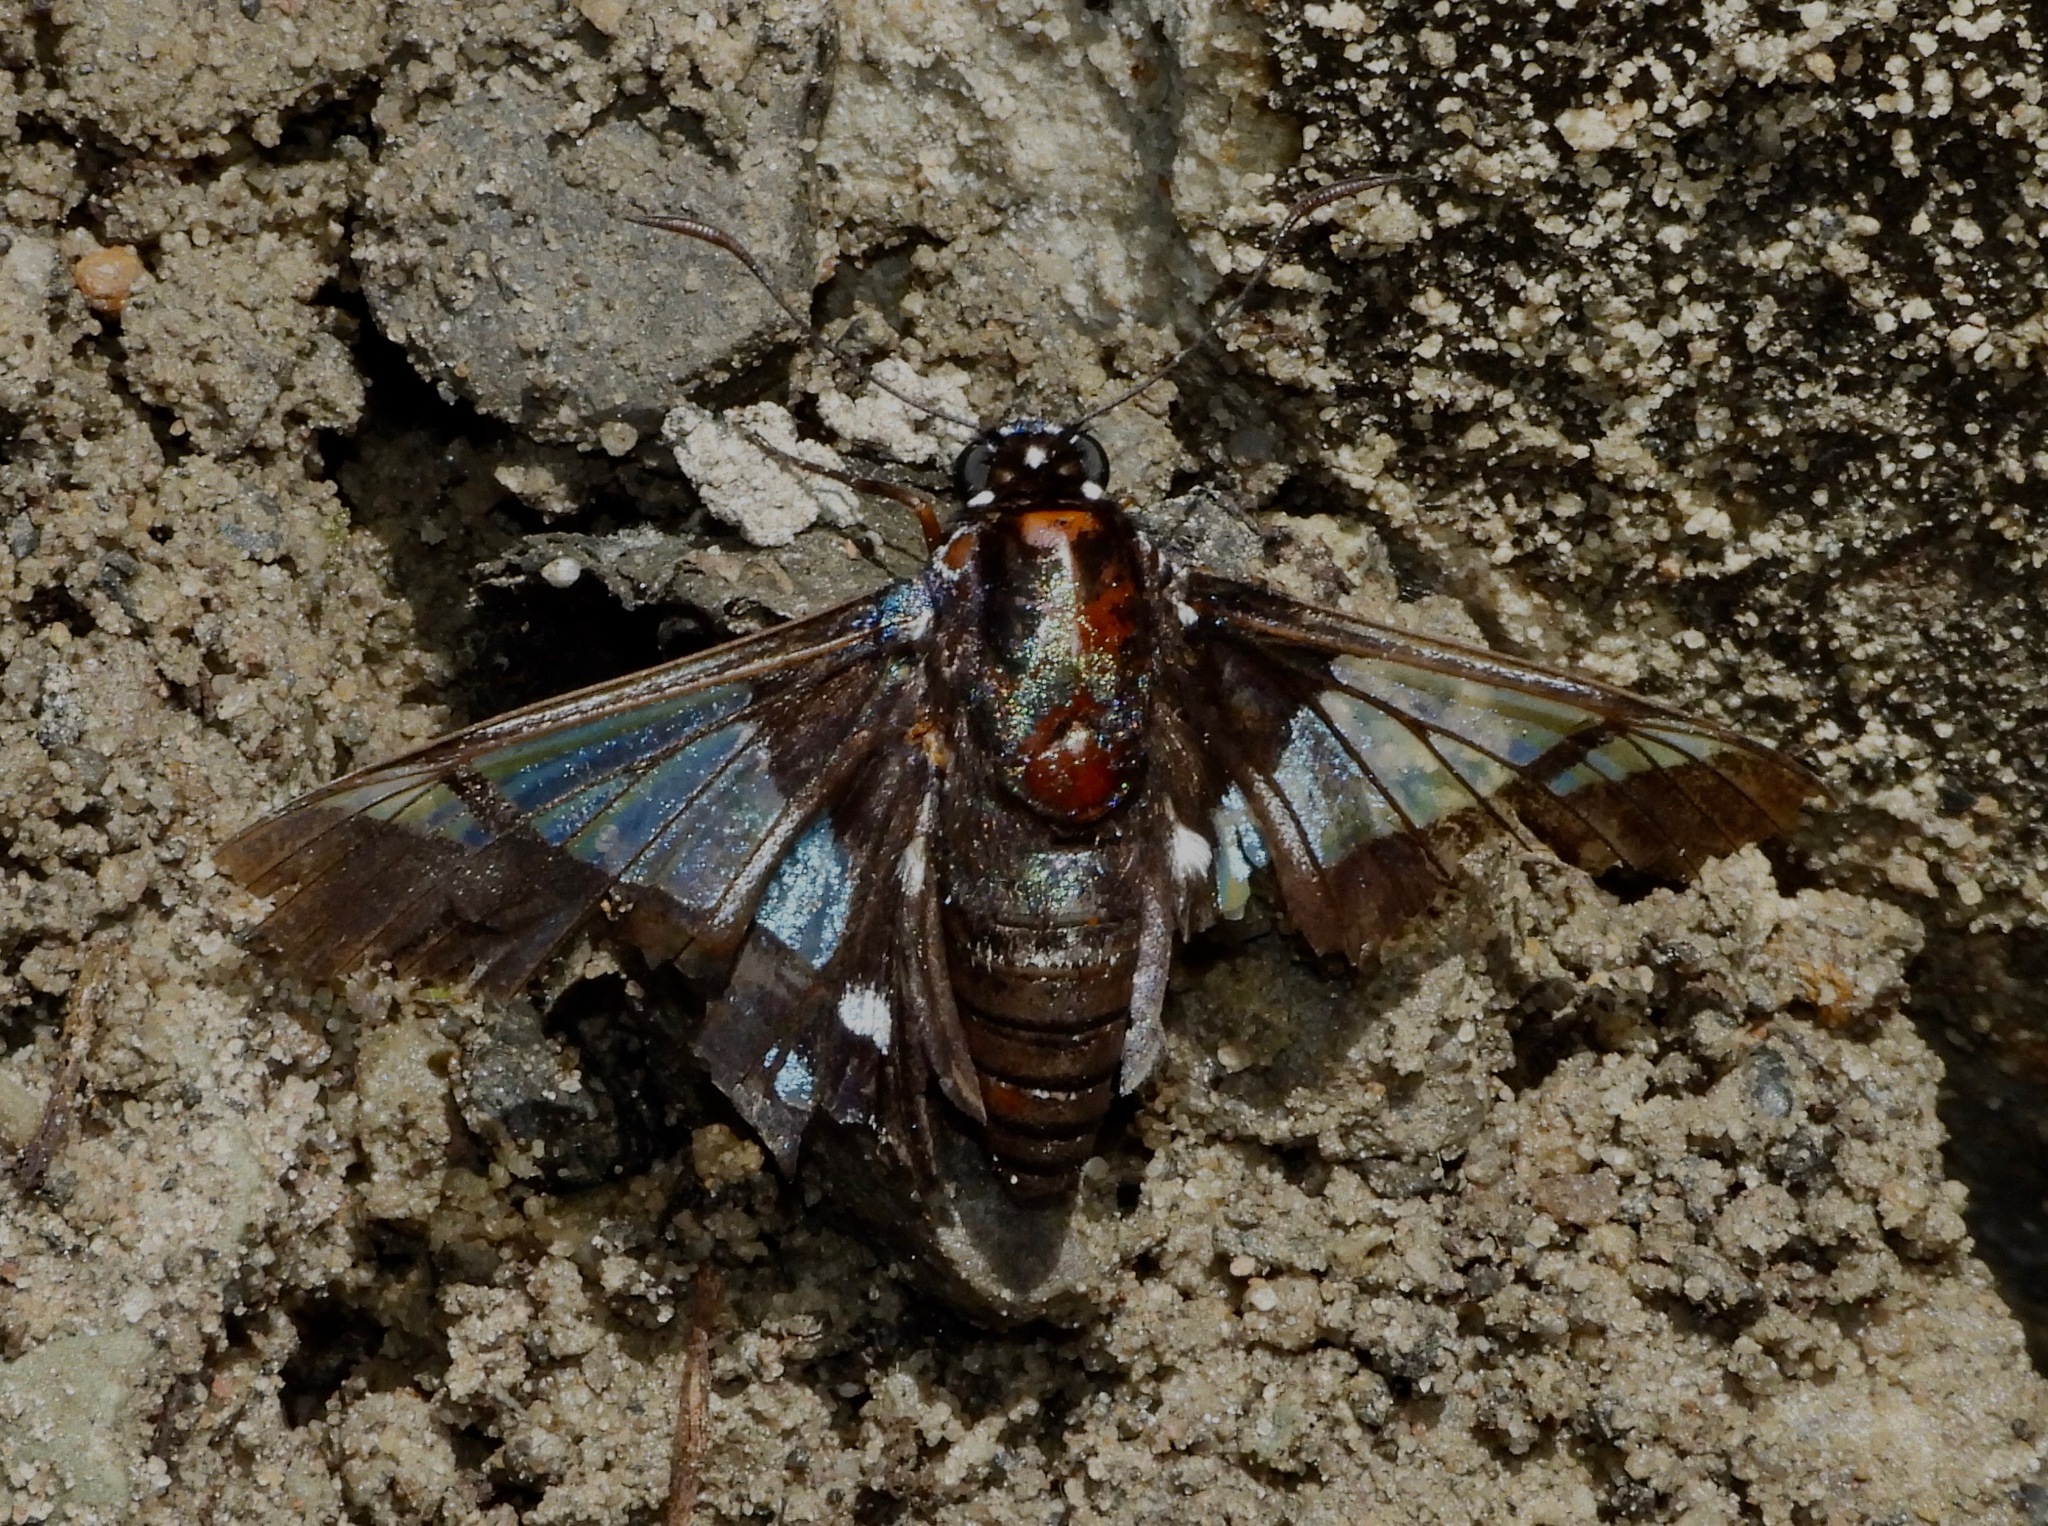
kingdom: Animalia
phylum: Arthropoda
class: Insecta
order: Lepidoptera
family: Hesperiidae
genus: Oxynetra
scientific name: Oxynetra semihyalina
